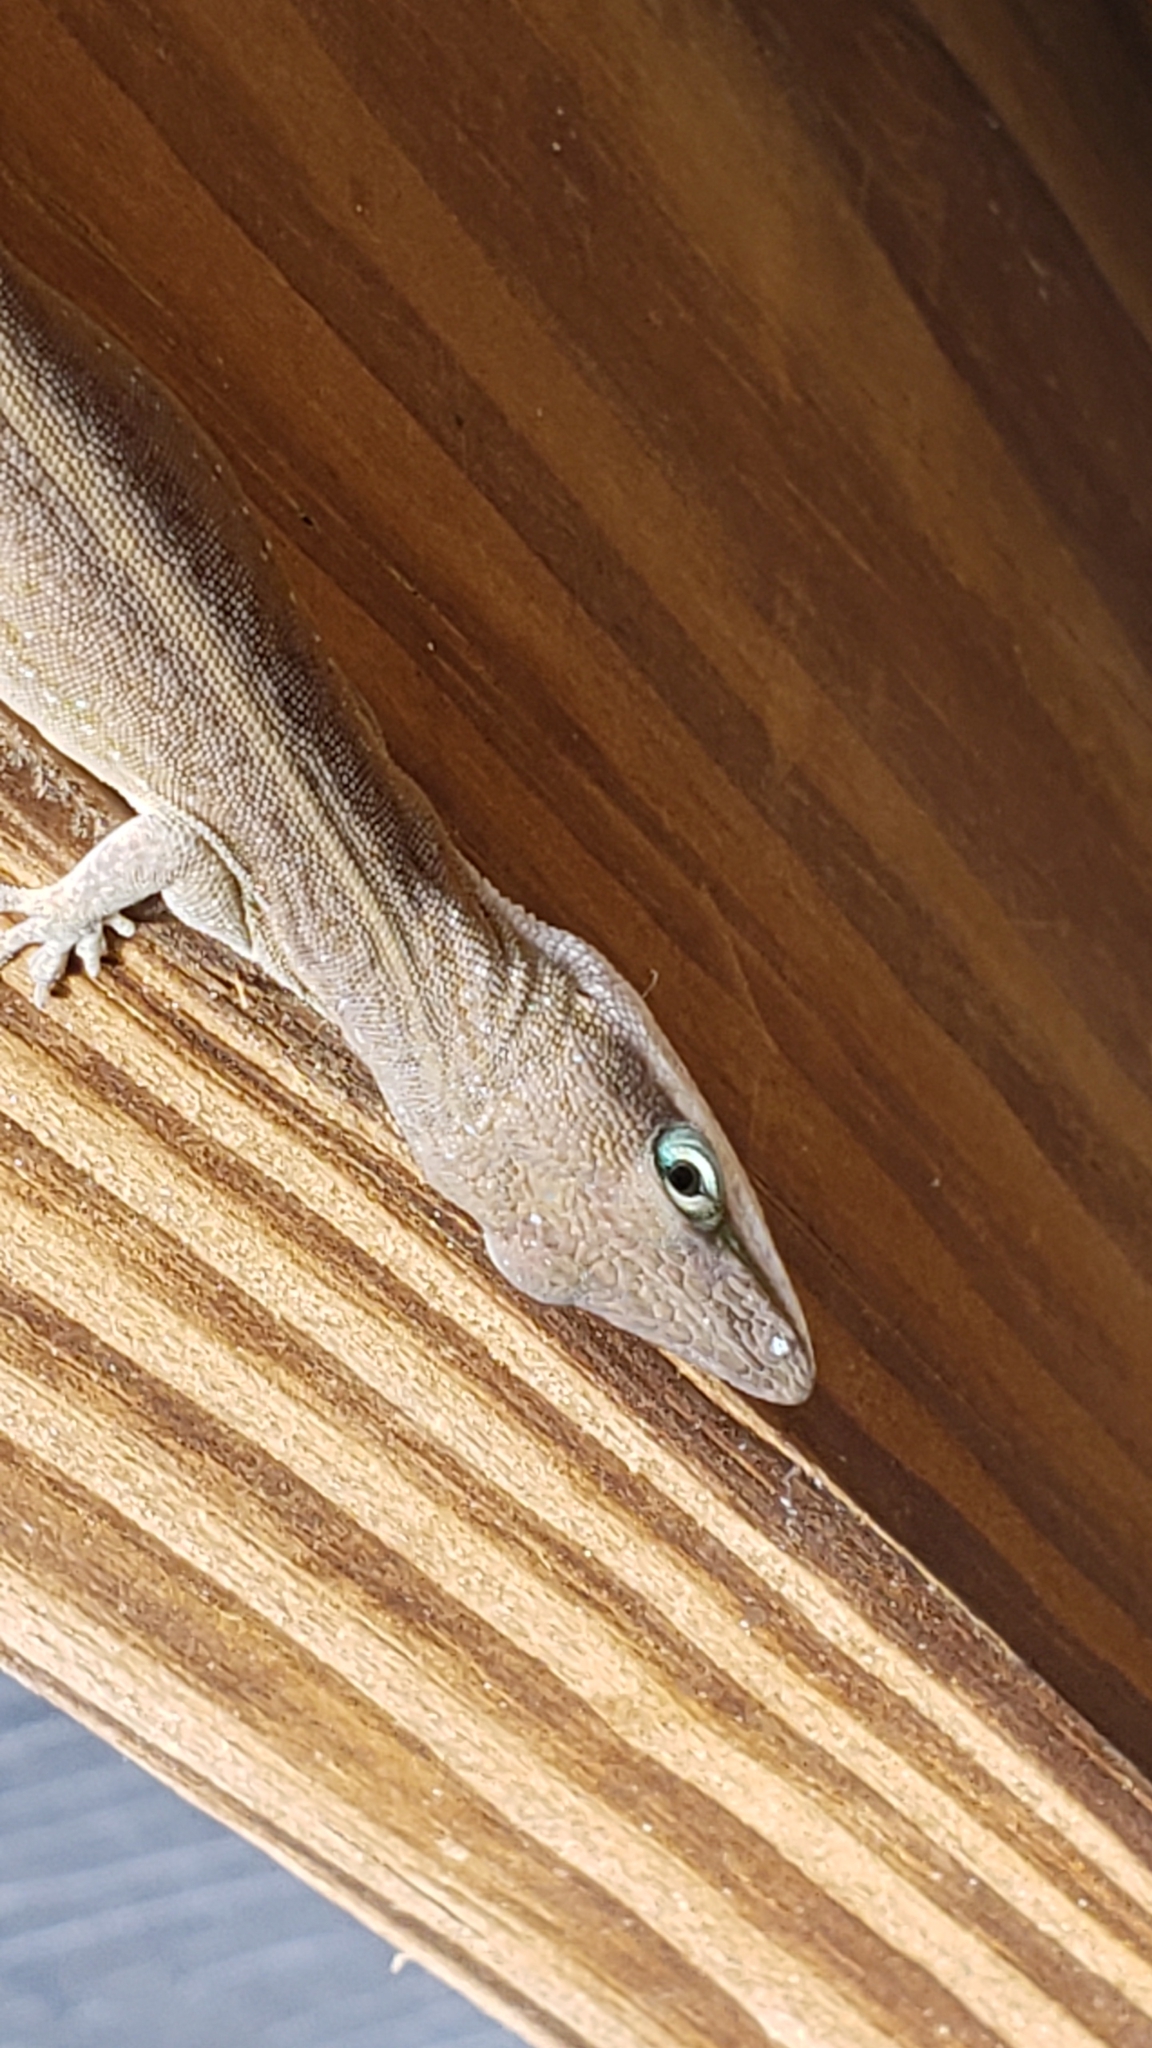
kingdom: Animalia
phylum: Chordata
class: Squamata
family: Dactyloidae
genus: Anolis
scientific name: Anolis carolinensis
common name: Green anole
